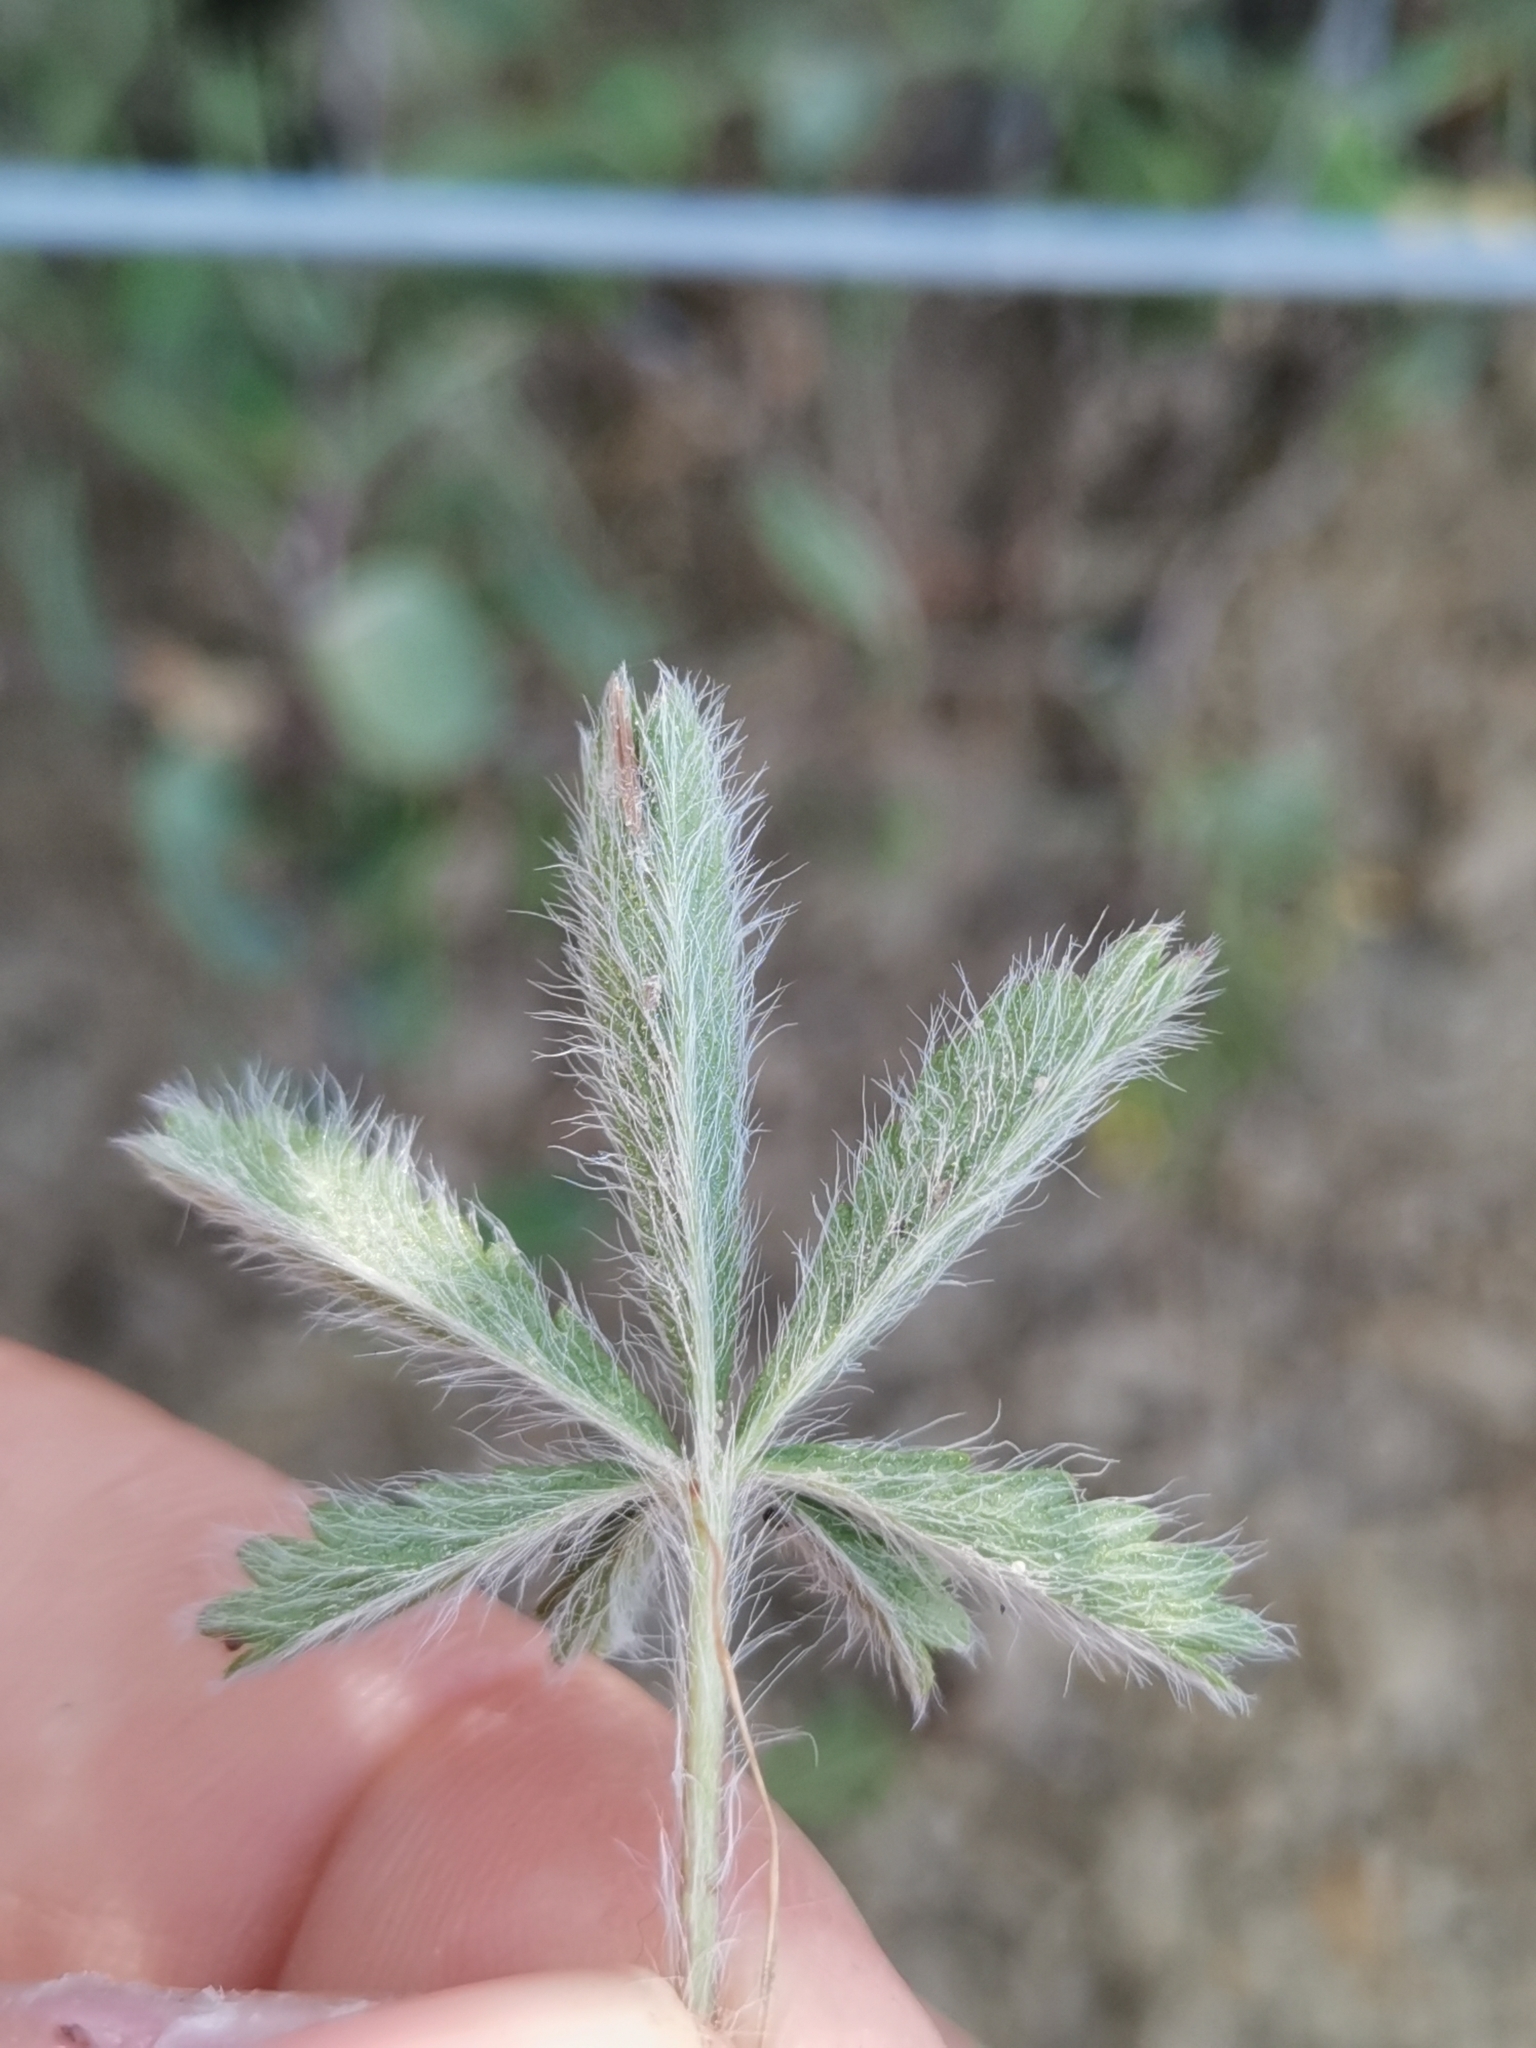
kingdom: Plantae
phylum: Tracheophyta
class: Magnoliopsida
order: Rosales
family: Rosaceae
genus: Potentilla
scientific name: Potentilla hirta
